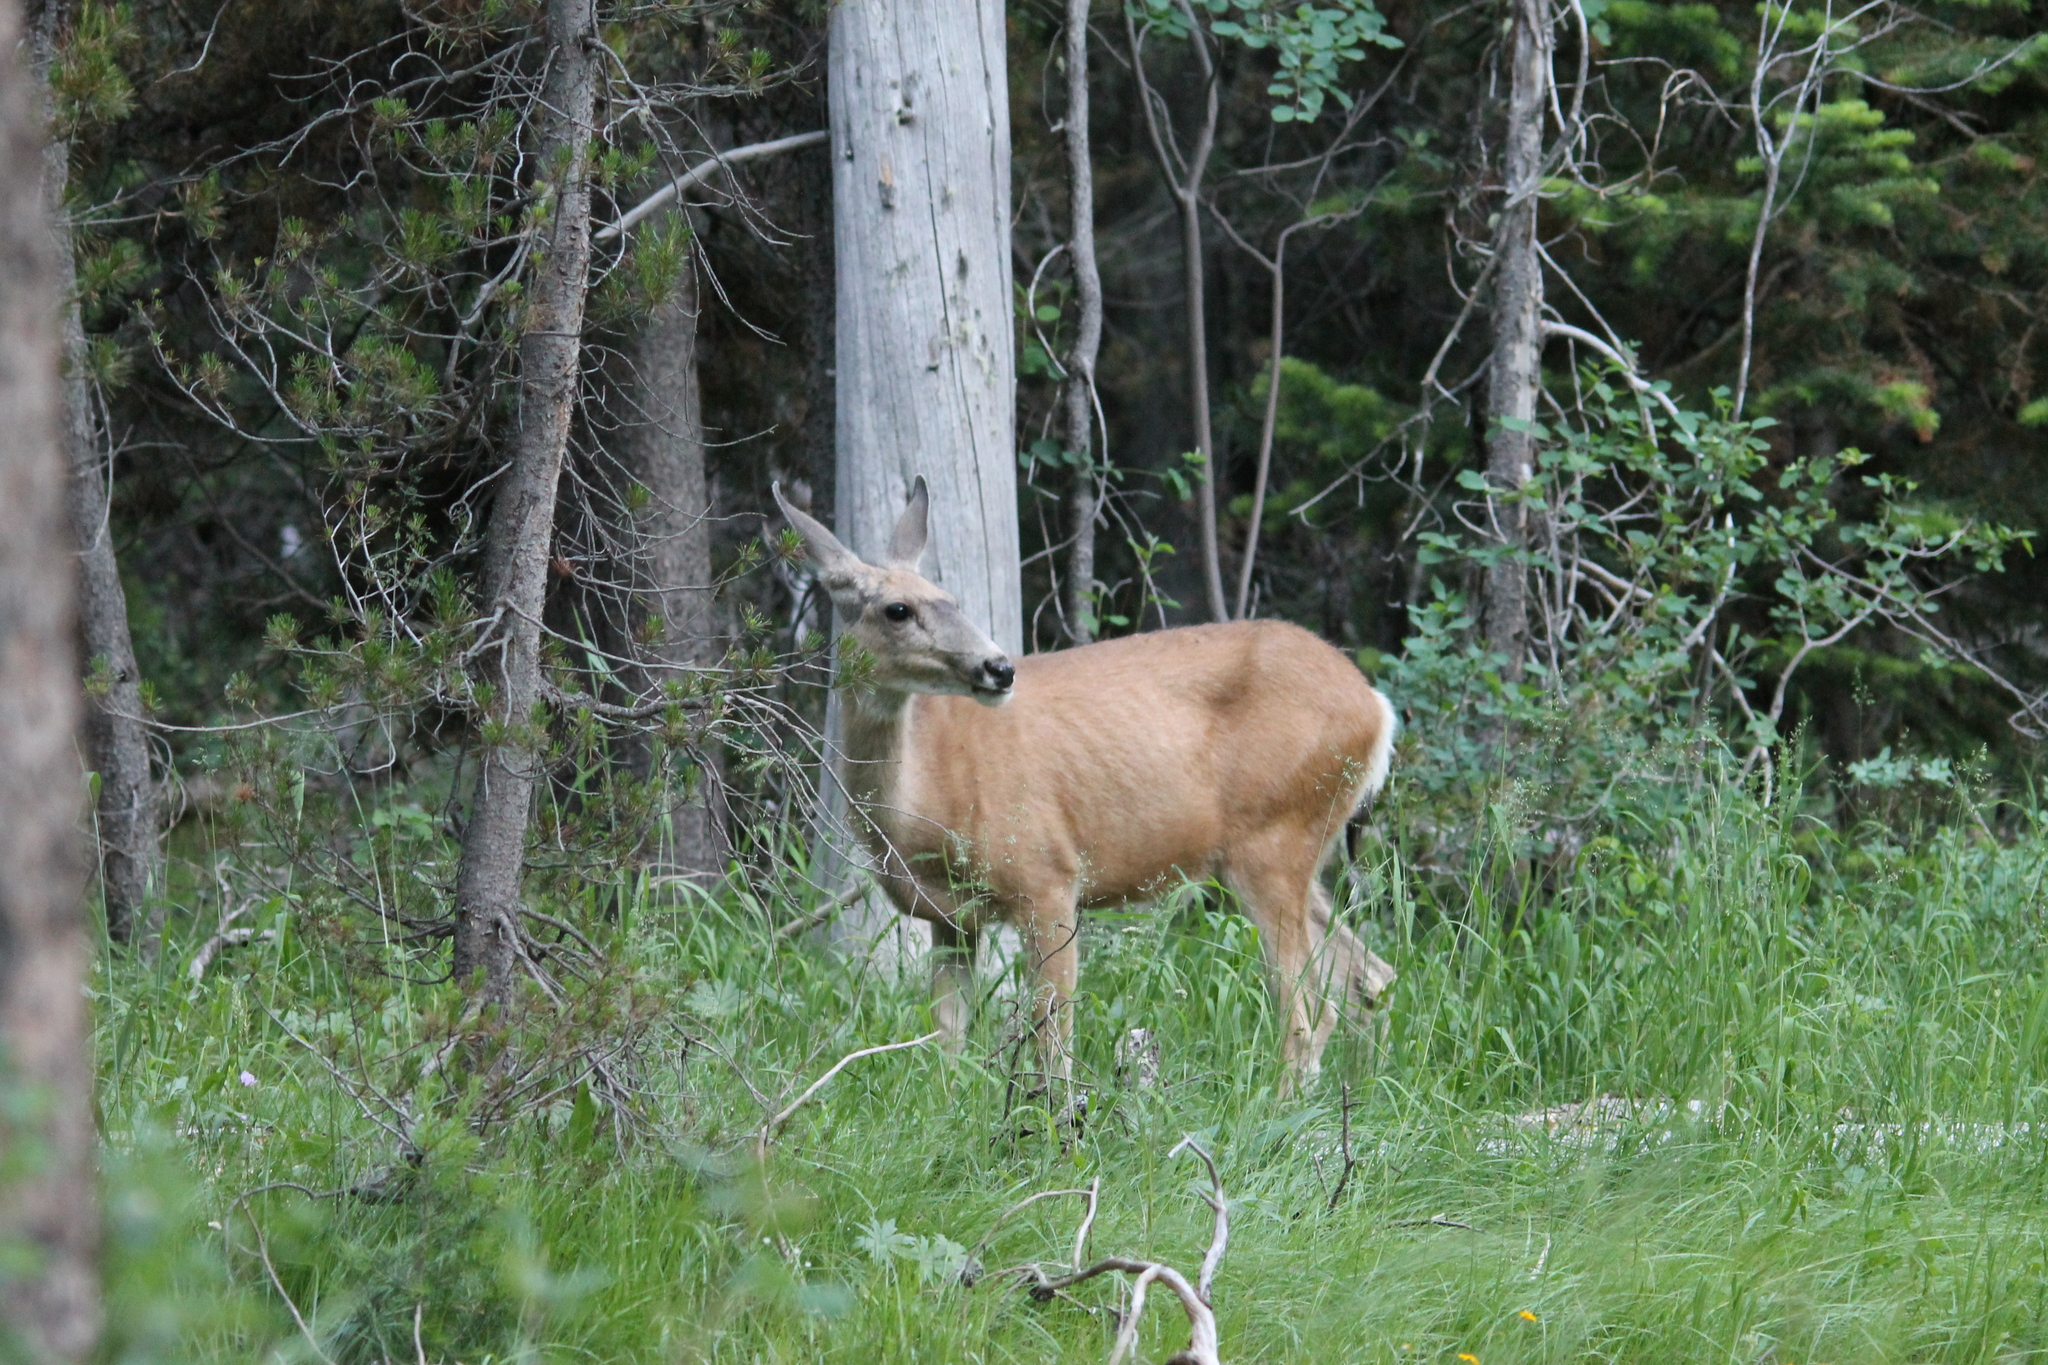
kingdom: Animalia
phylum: Chordata
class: Mammalia
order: Artiodactyla
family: Cervidae
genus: Odocoileus
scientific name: Odocoileus hemionus
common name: Mule deer
